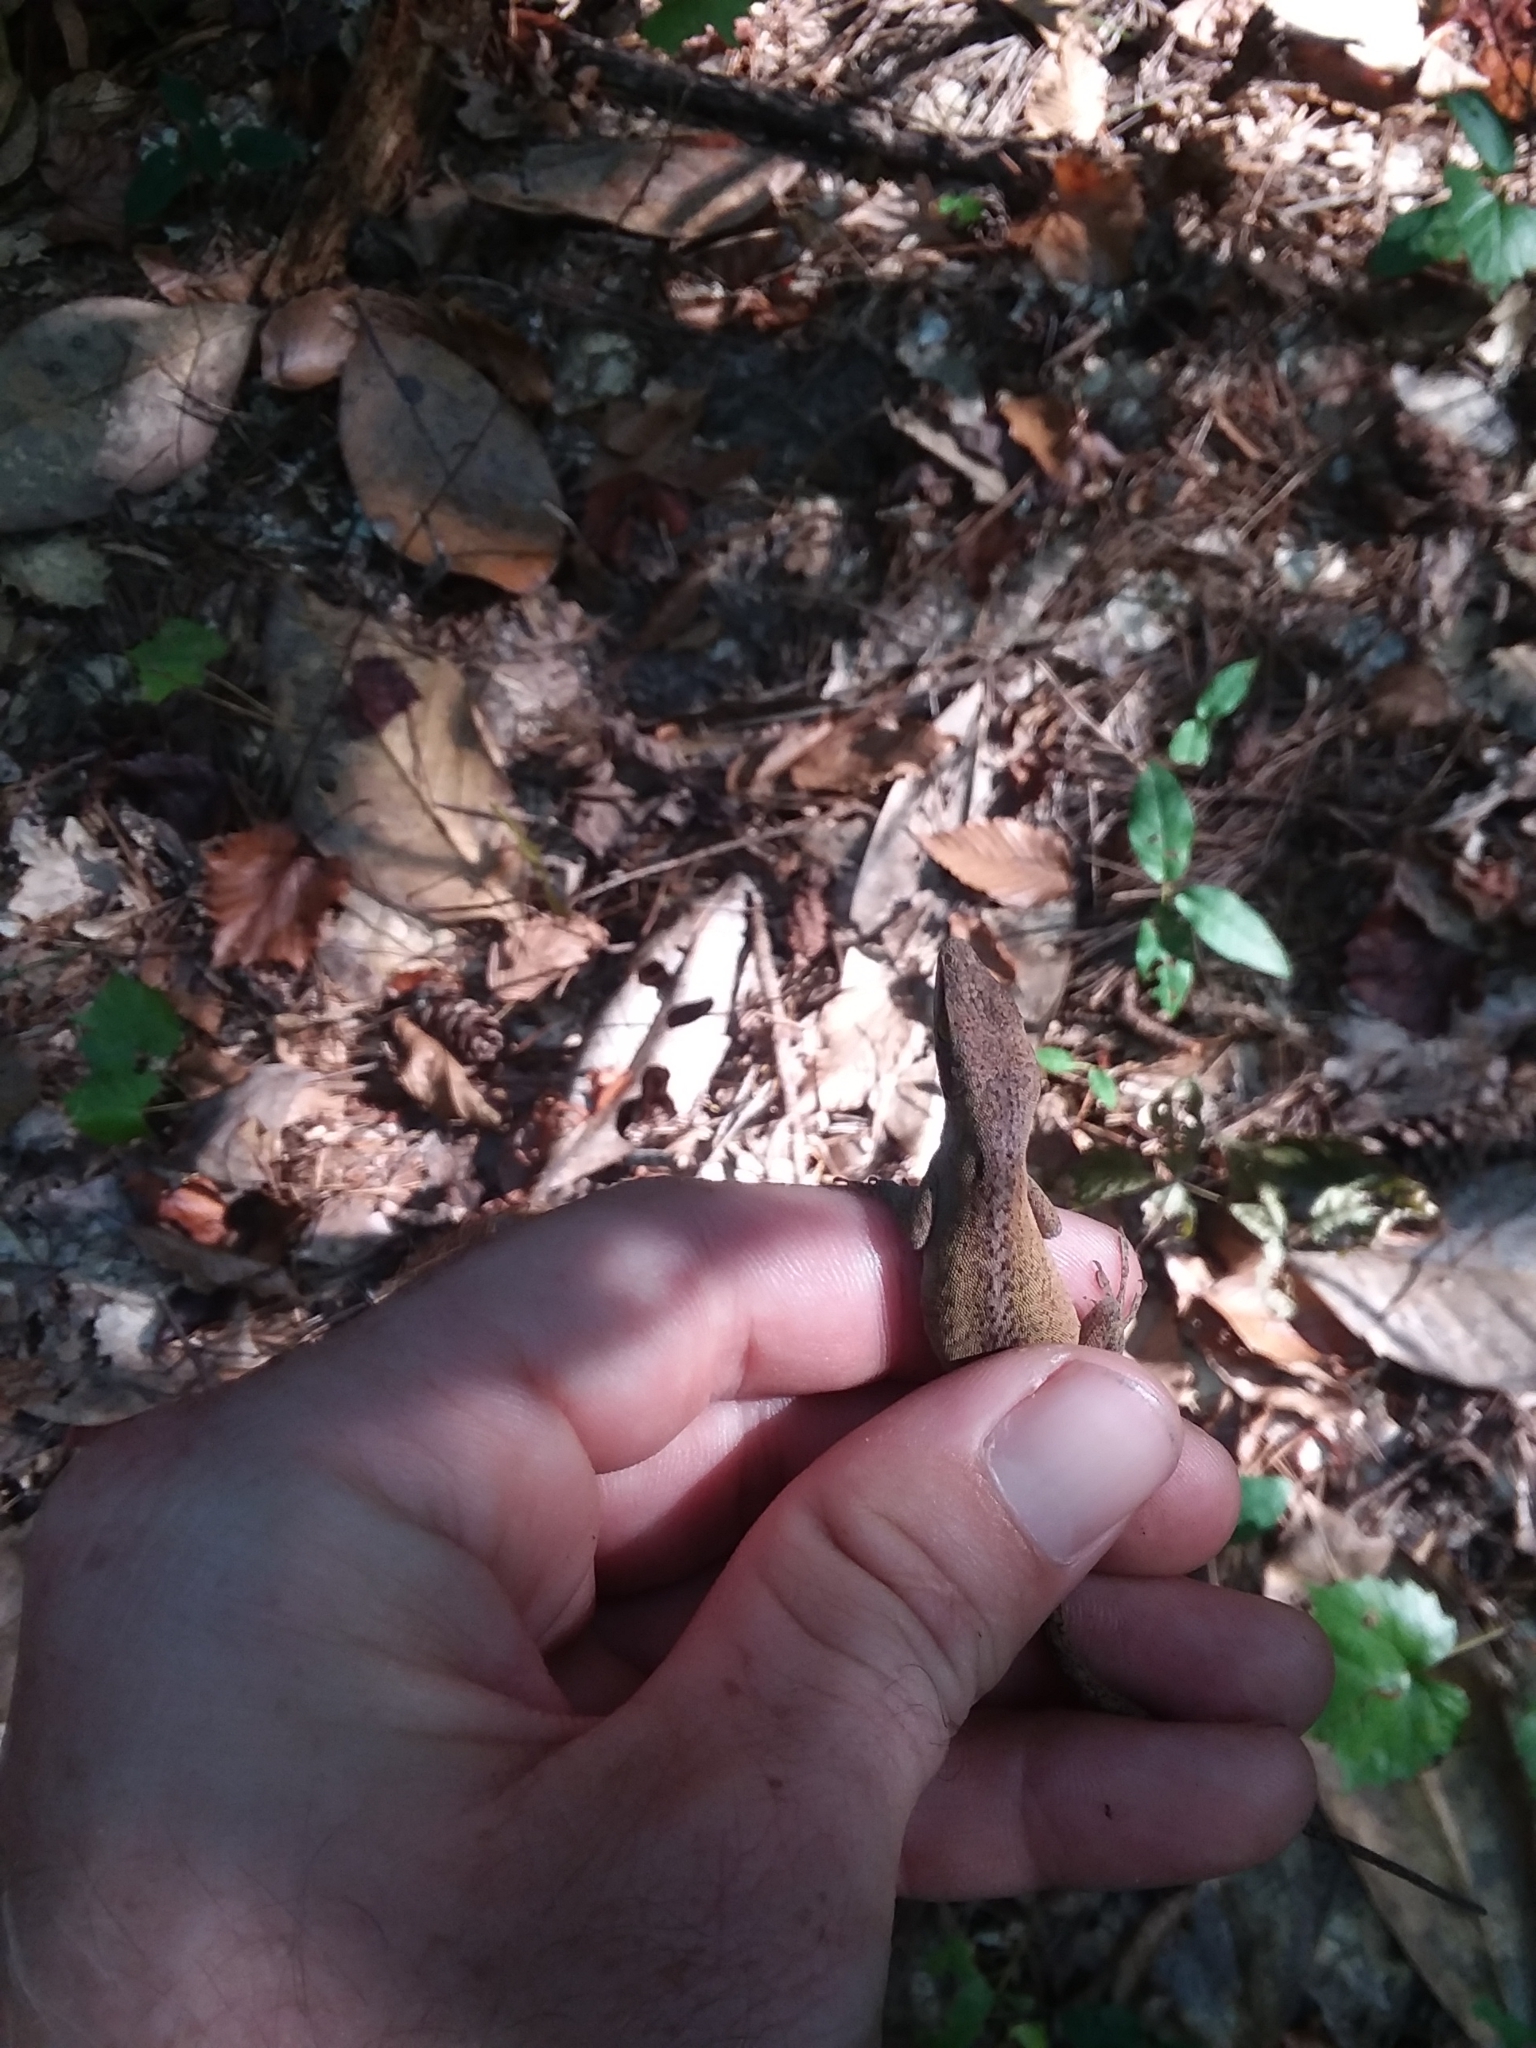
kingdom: Animalia
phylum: Chordata
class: Squamata
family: Dactyloidae
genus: Anolis
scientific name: Anolis carolinensis
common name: Green anole
